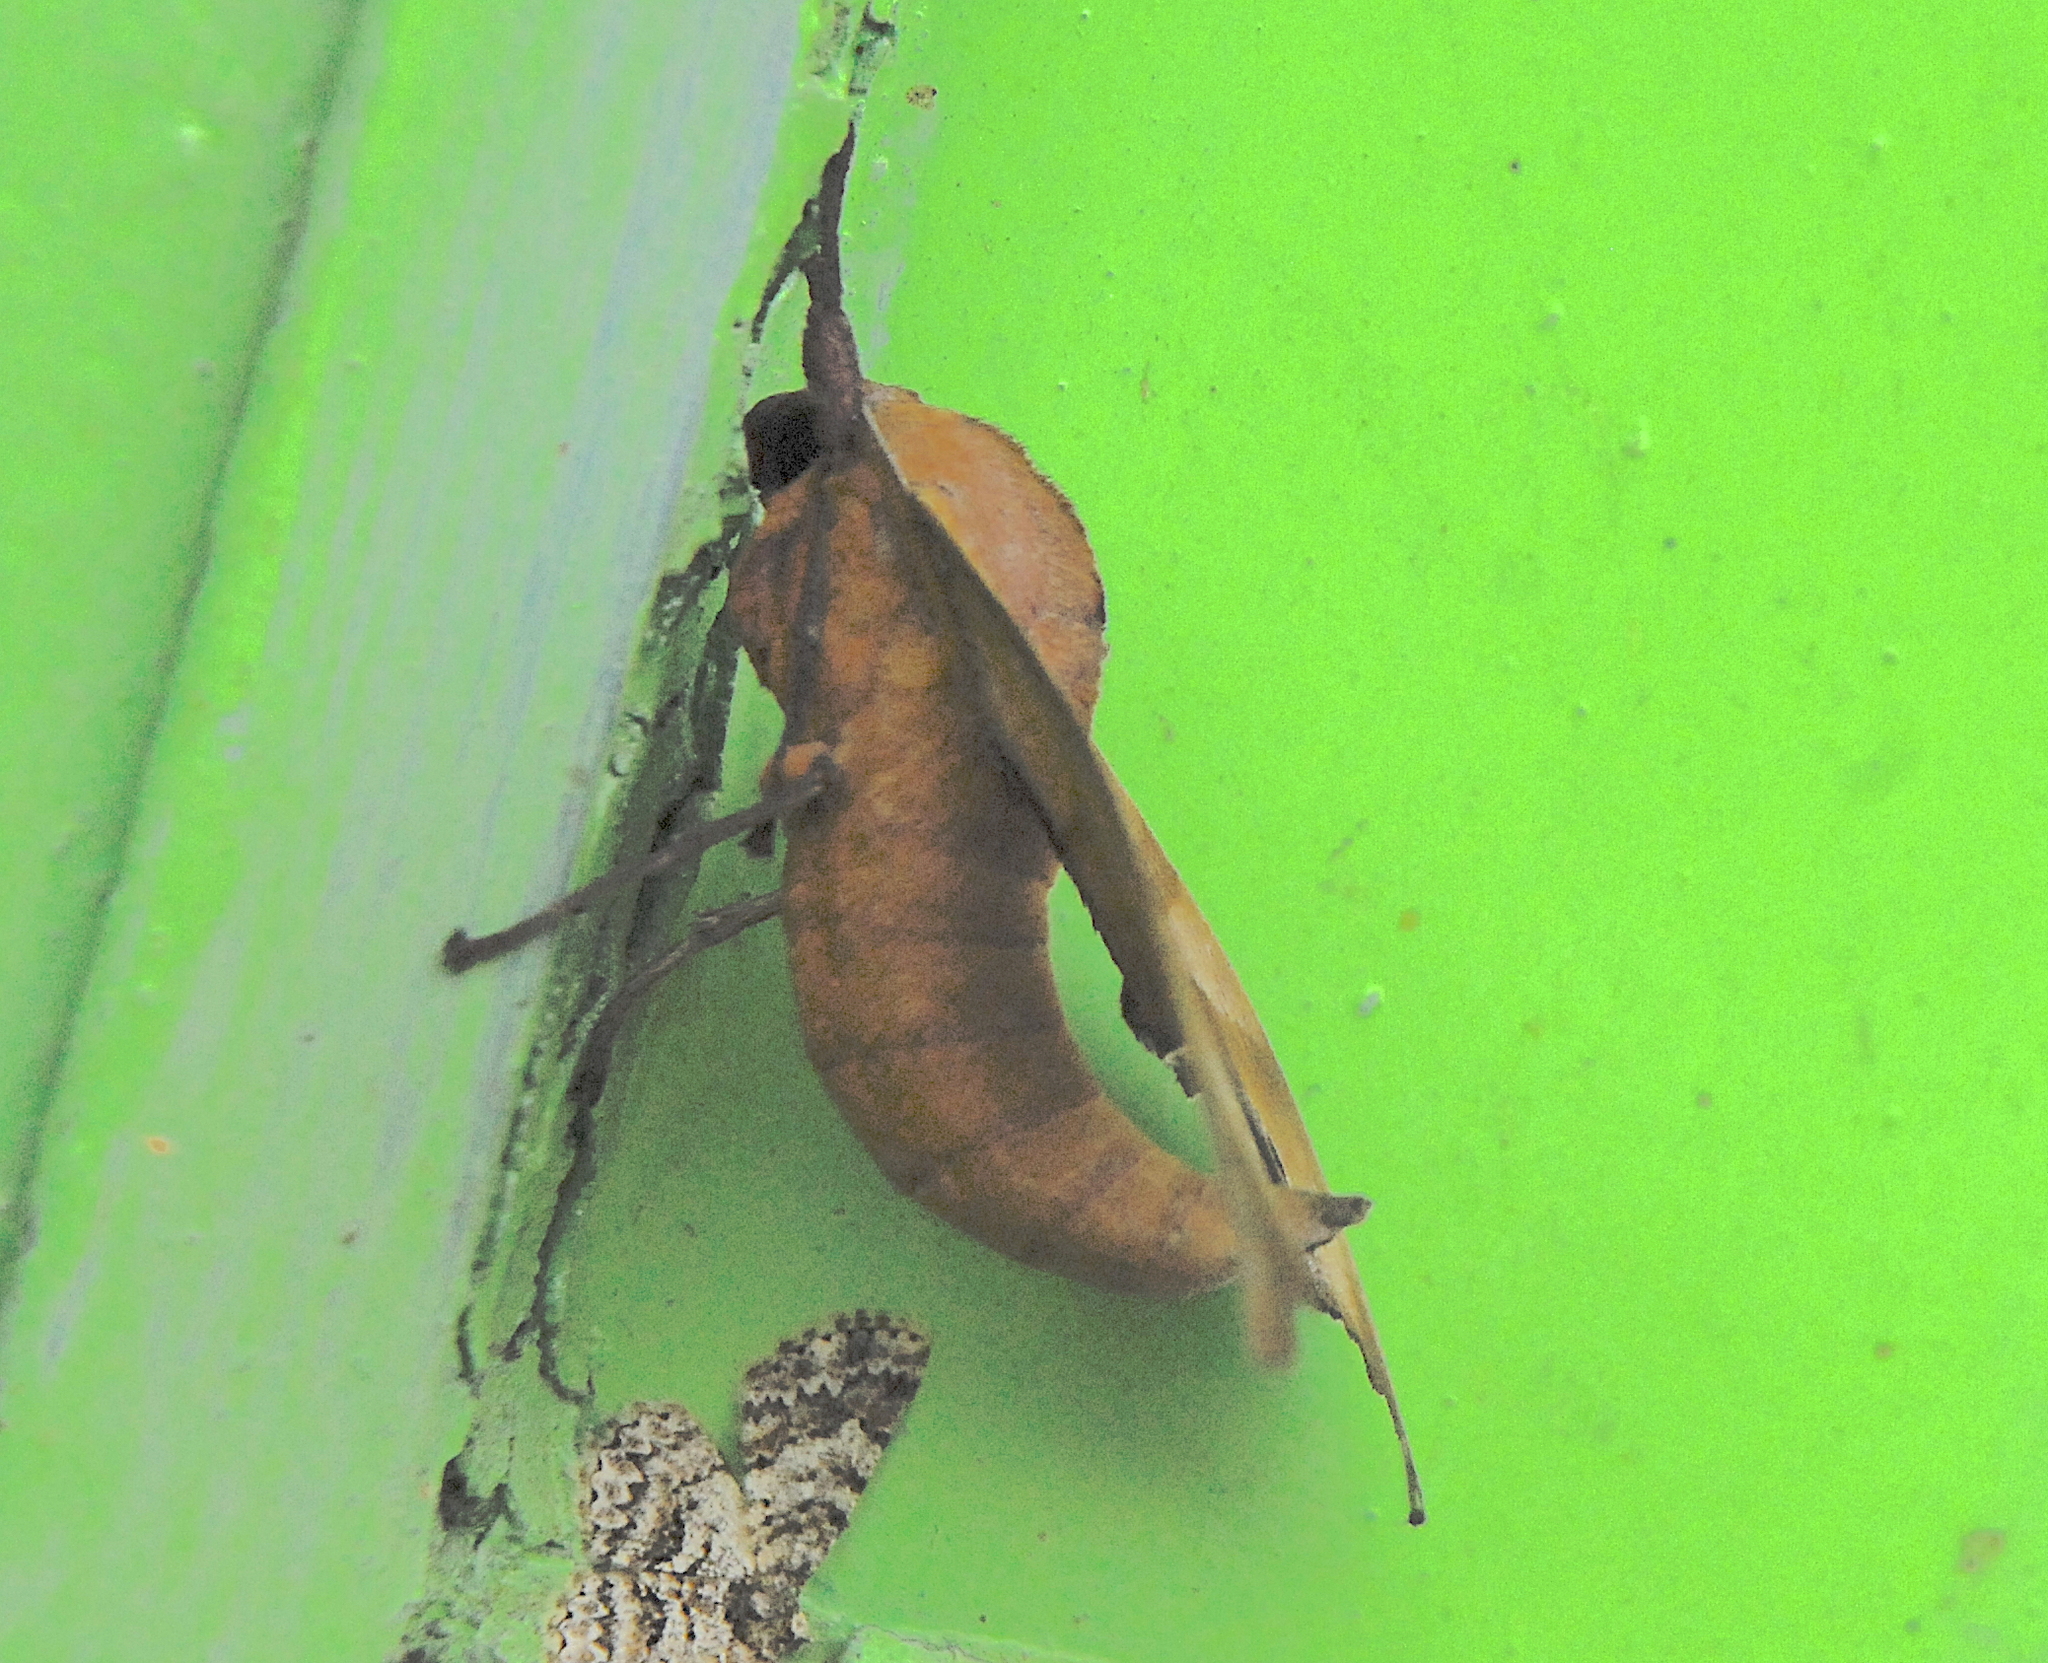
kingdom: Animalia
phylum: Arthropoda
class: Insecta
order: Lepidoptera
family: Sphingidae
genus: Marumba
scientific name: Marumba nympha
